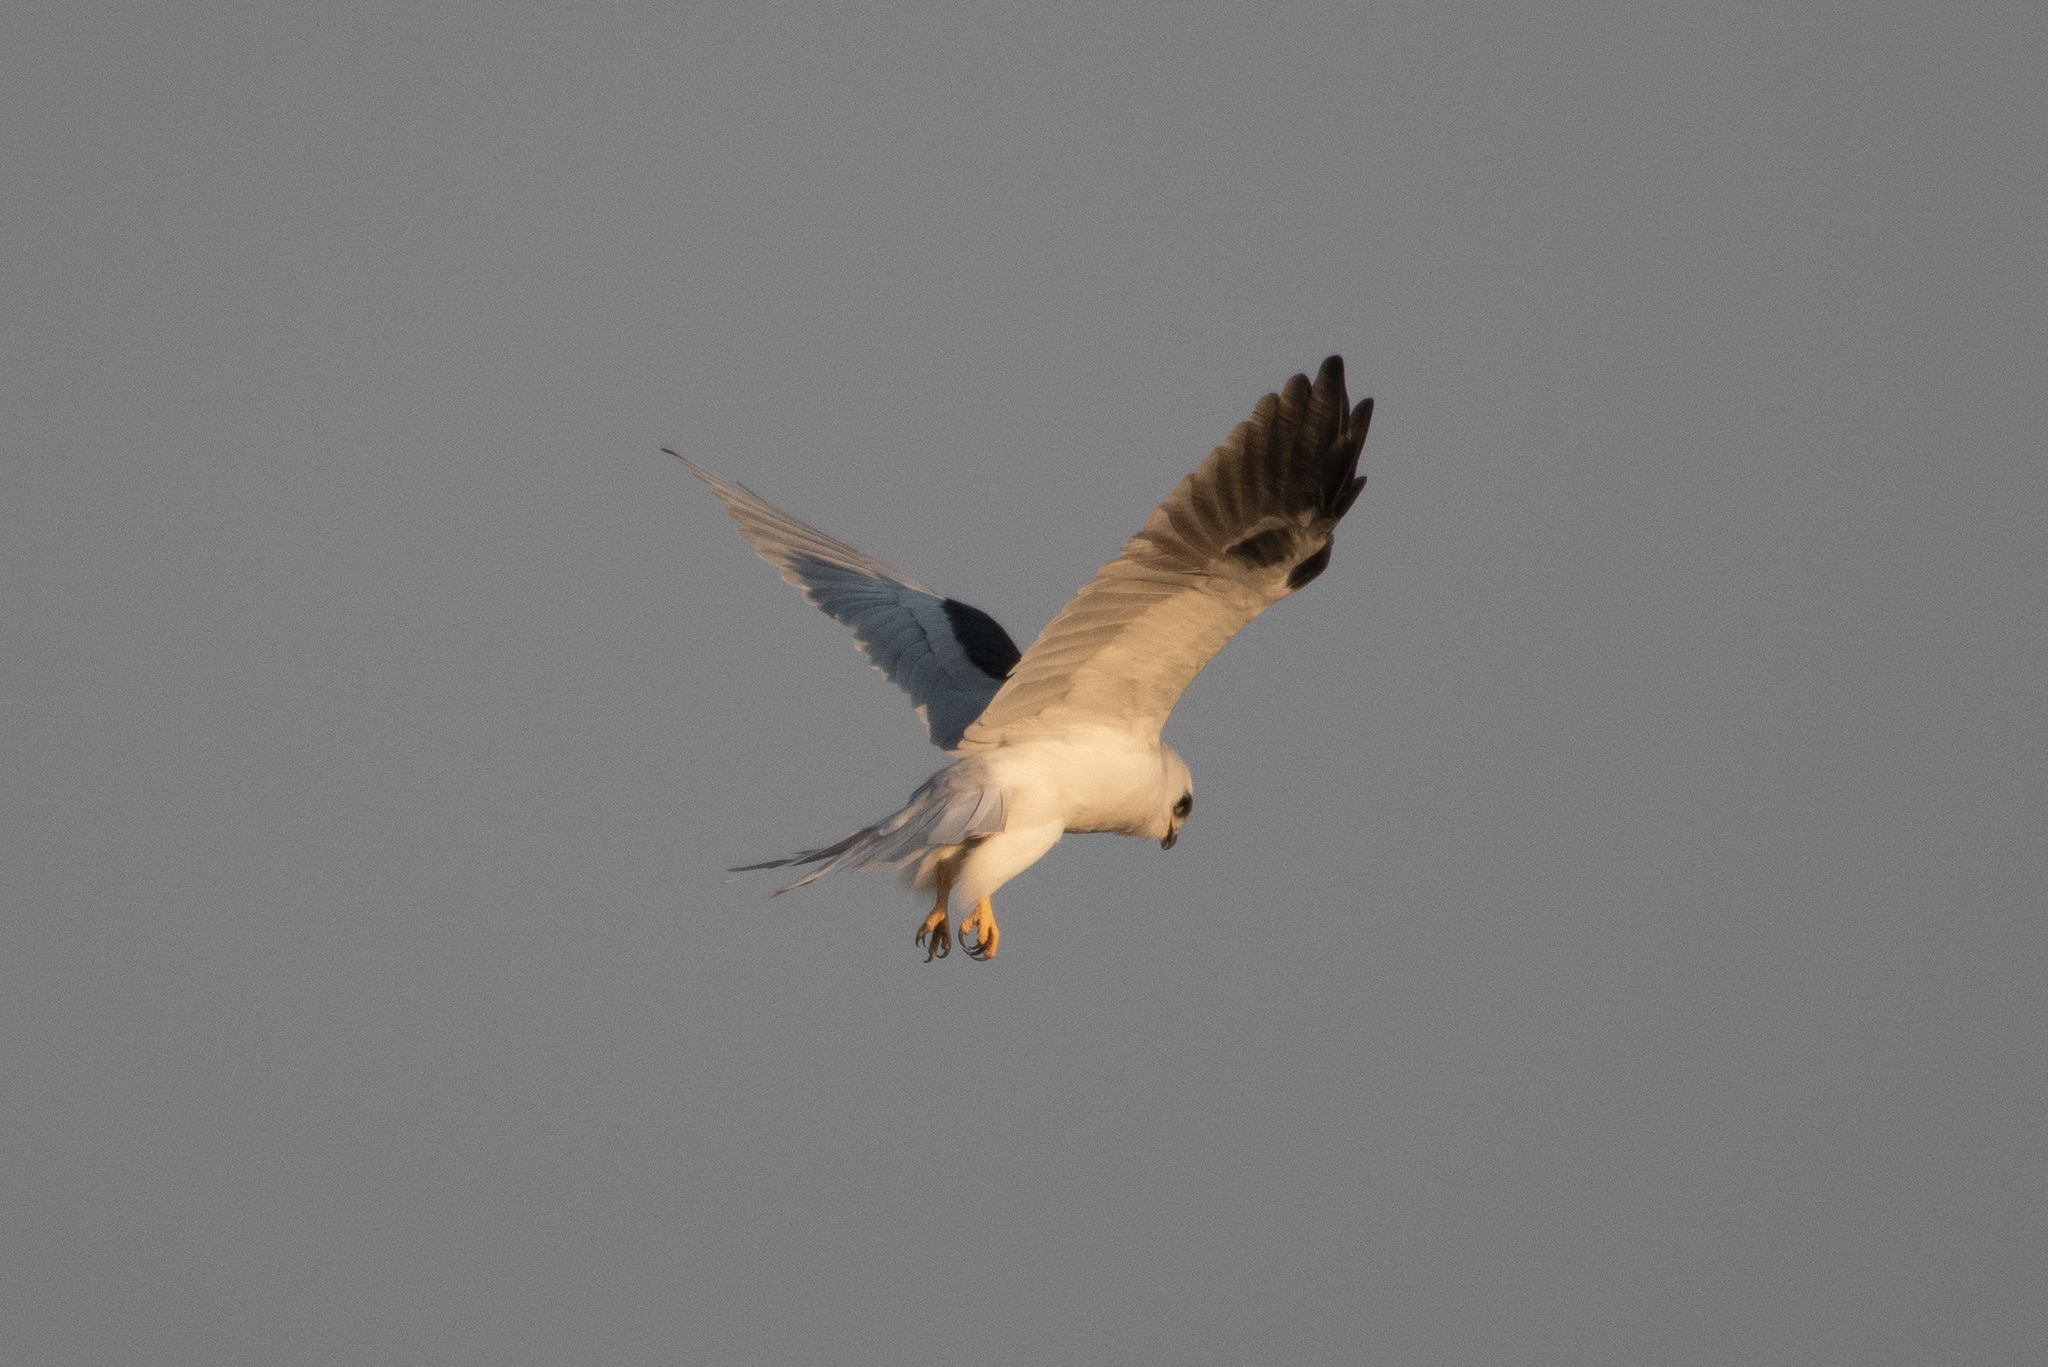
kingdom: Animalia
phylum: Chordata
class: Aves
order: Accipitriformes
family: Accipitridae
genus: Elanus
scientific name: Elanus leucurus
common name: White-tailed kite
